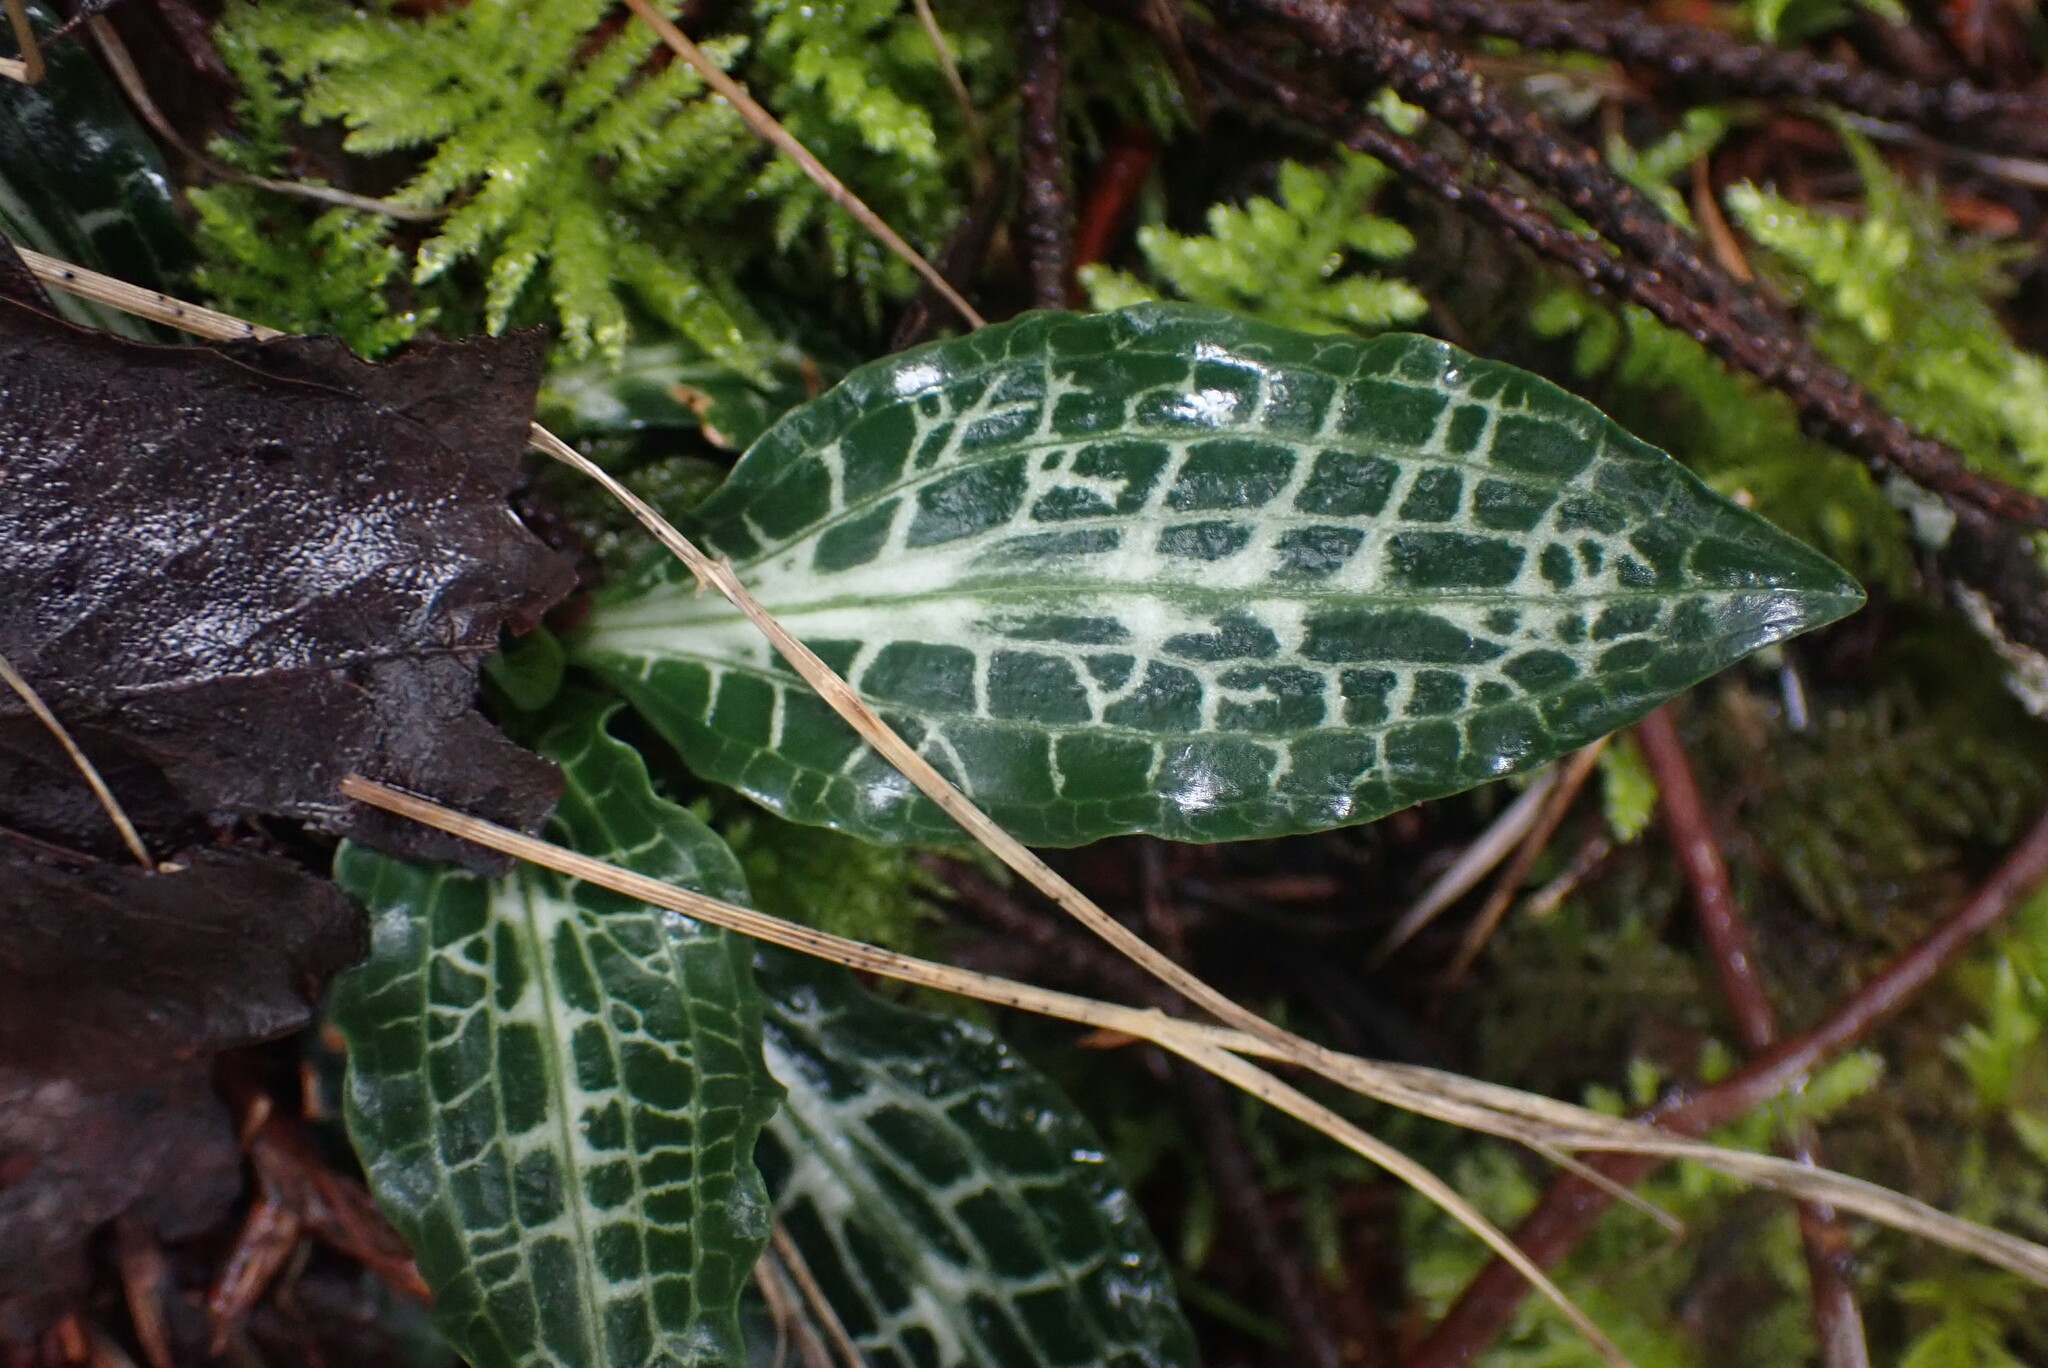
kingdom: Plantae
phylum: Tracheophyta
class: Liliopsida
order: Asparagales
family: Orchidaceae
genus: Goodyera
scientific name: Goodyera oblongifolia
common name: Giant rattlesnake-plantain
